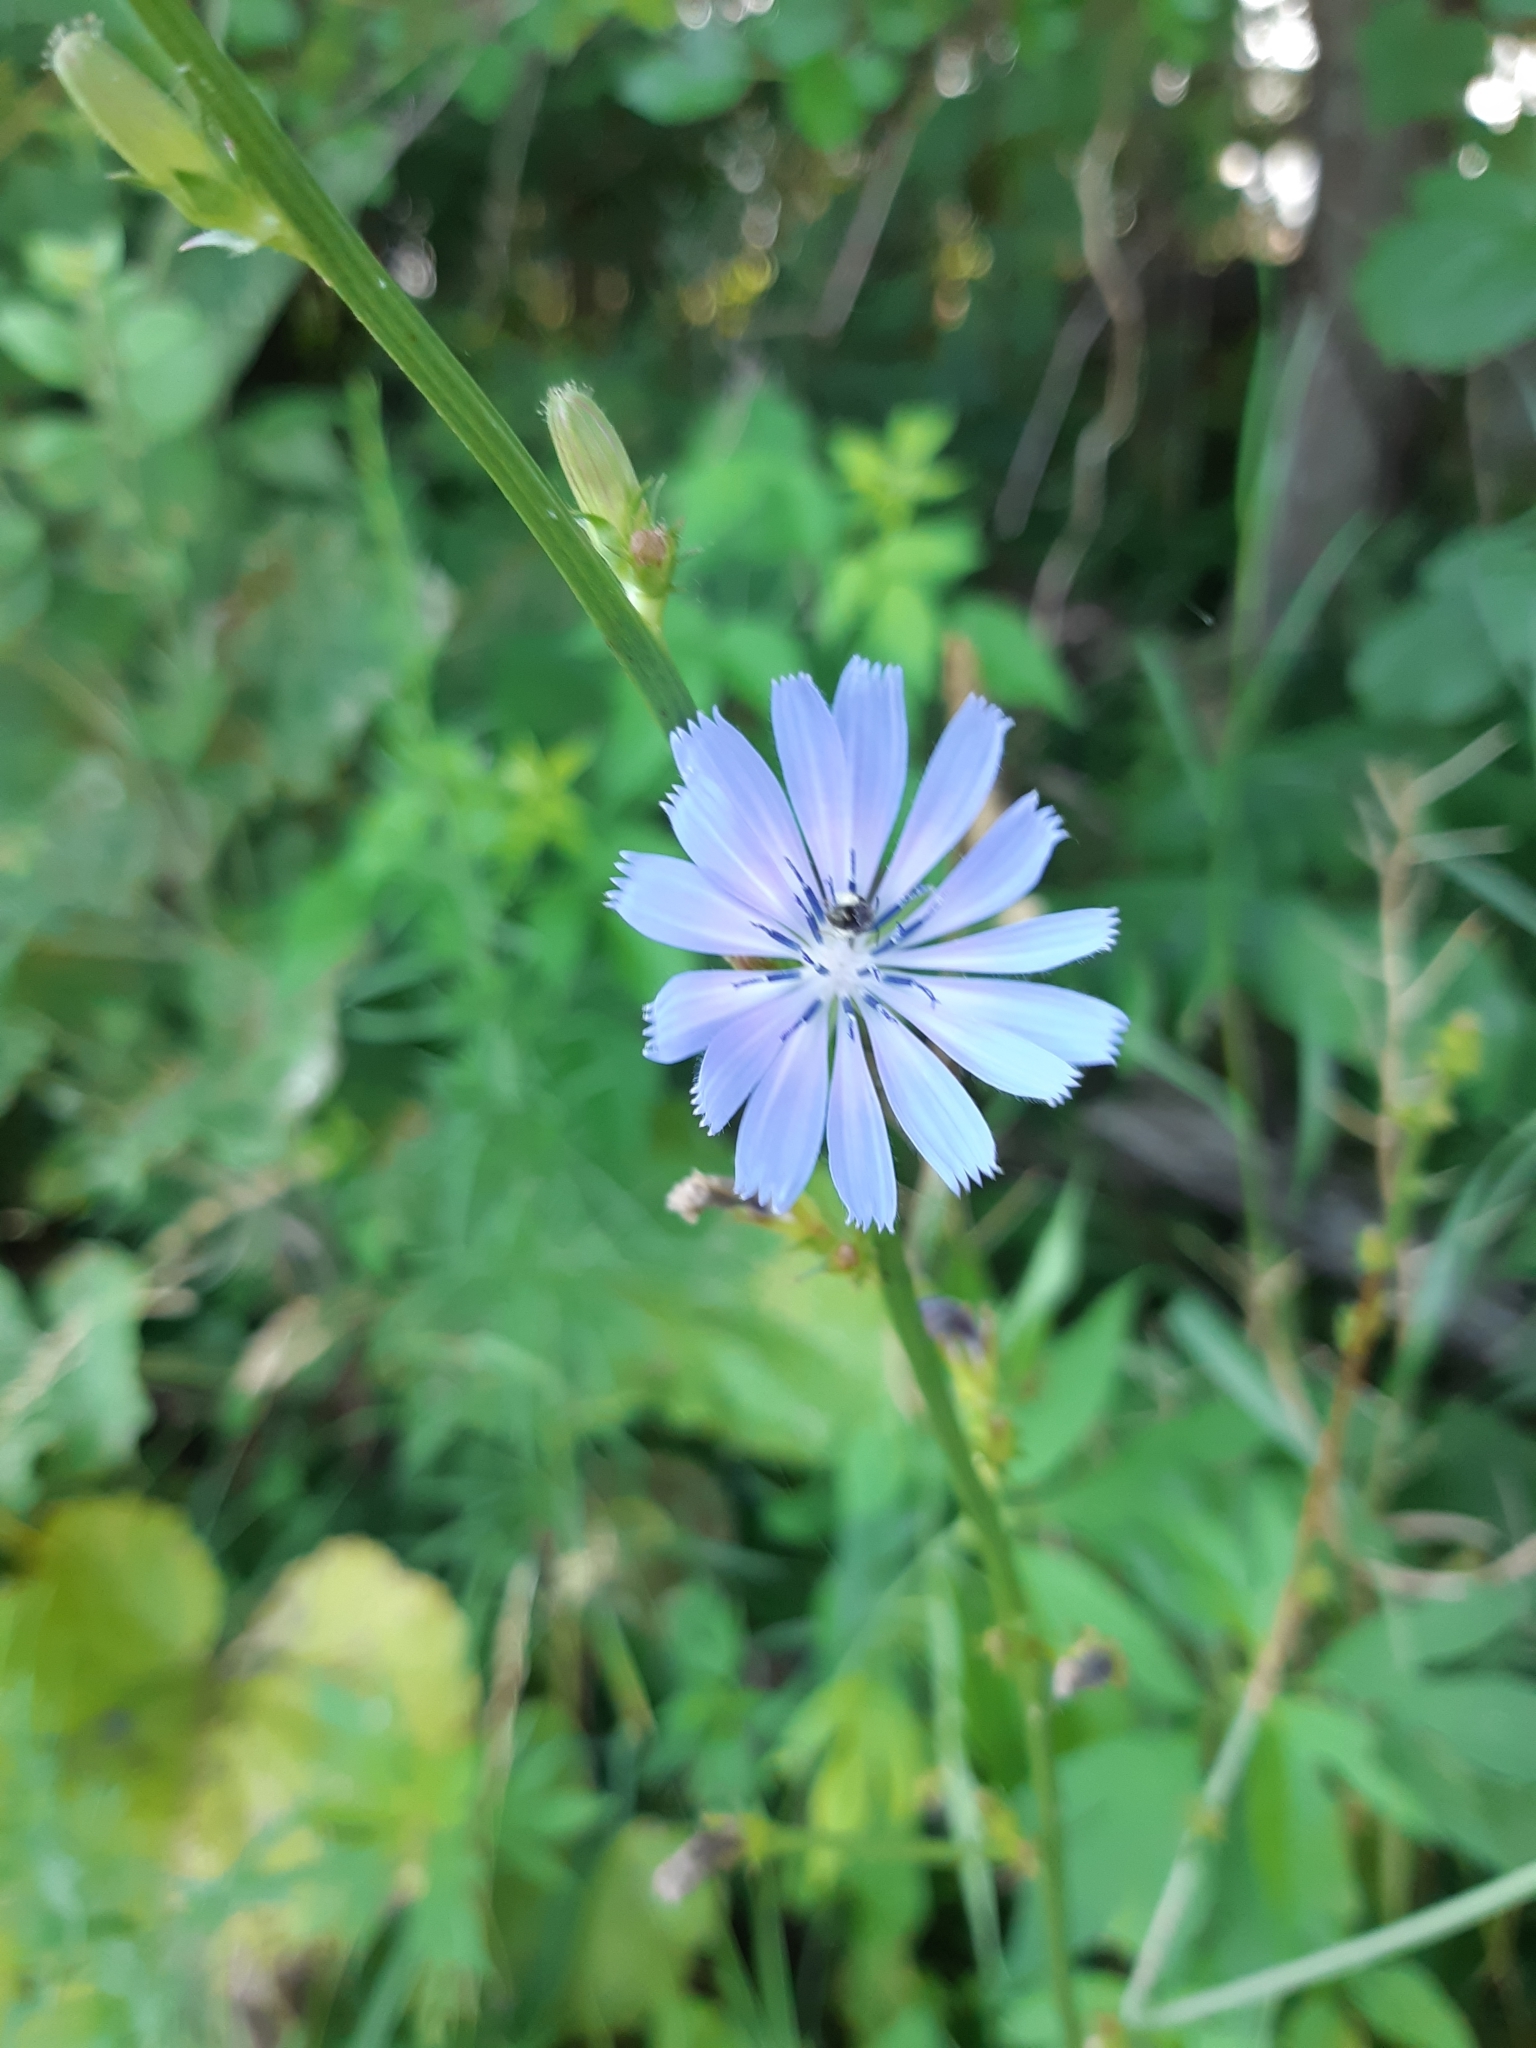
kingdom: Plantae
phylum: Tracheophyta
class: Magnoliopsida
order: Asterales
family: Asteraceae
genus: Cichorium
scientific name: Cichorium intybus
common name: Chicory
